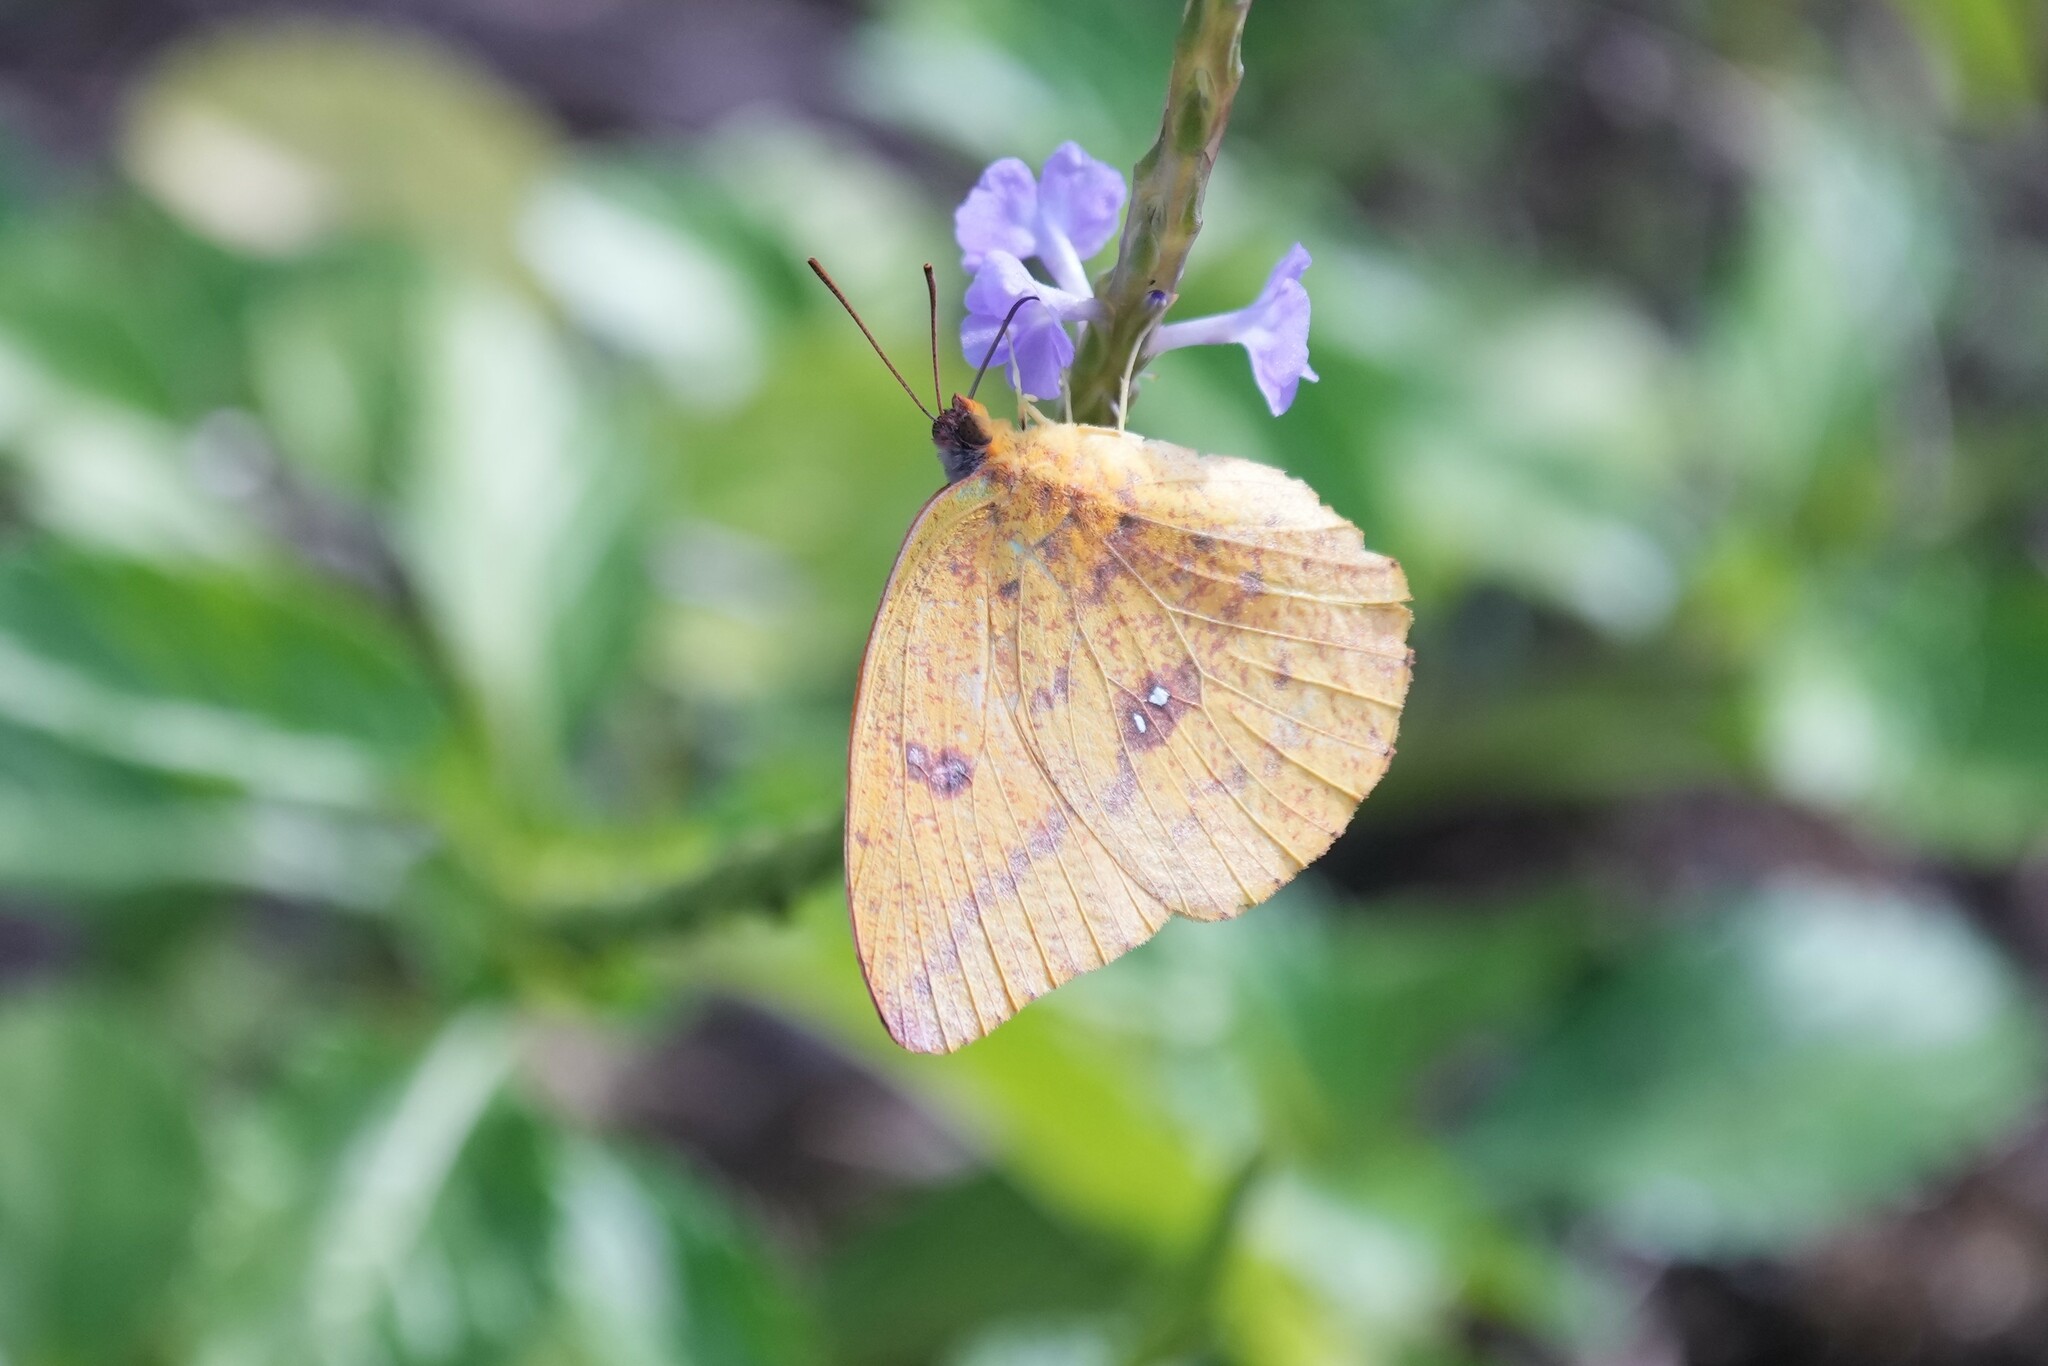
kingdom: Animalia
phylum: Arthropoda
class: Insecta
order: Lepidoptera
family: Pieridae
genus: Phoebis
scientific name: Phoebis agarithe
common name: Large orange sulphur
